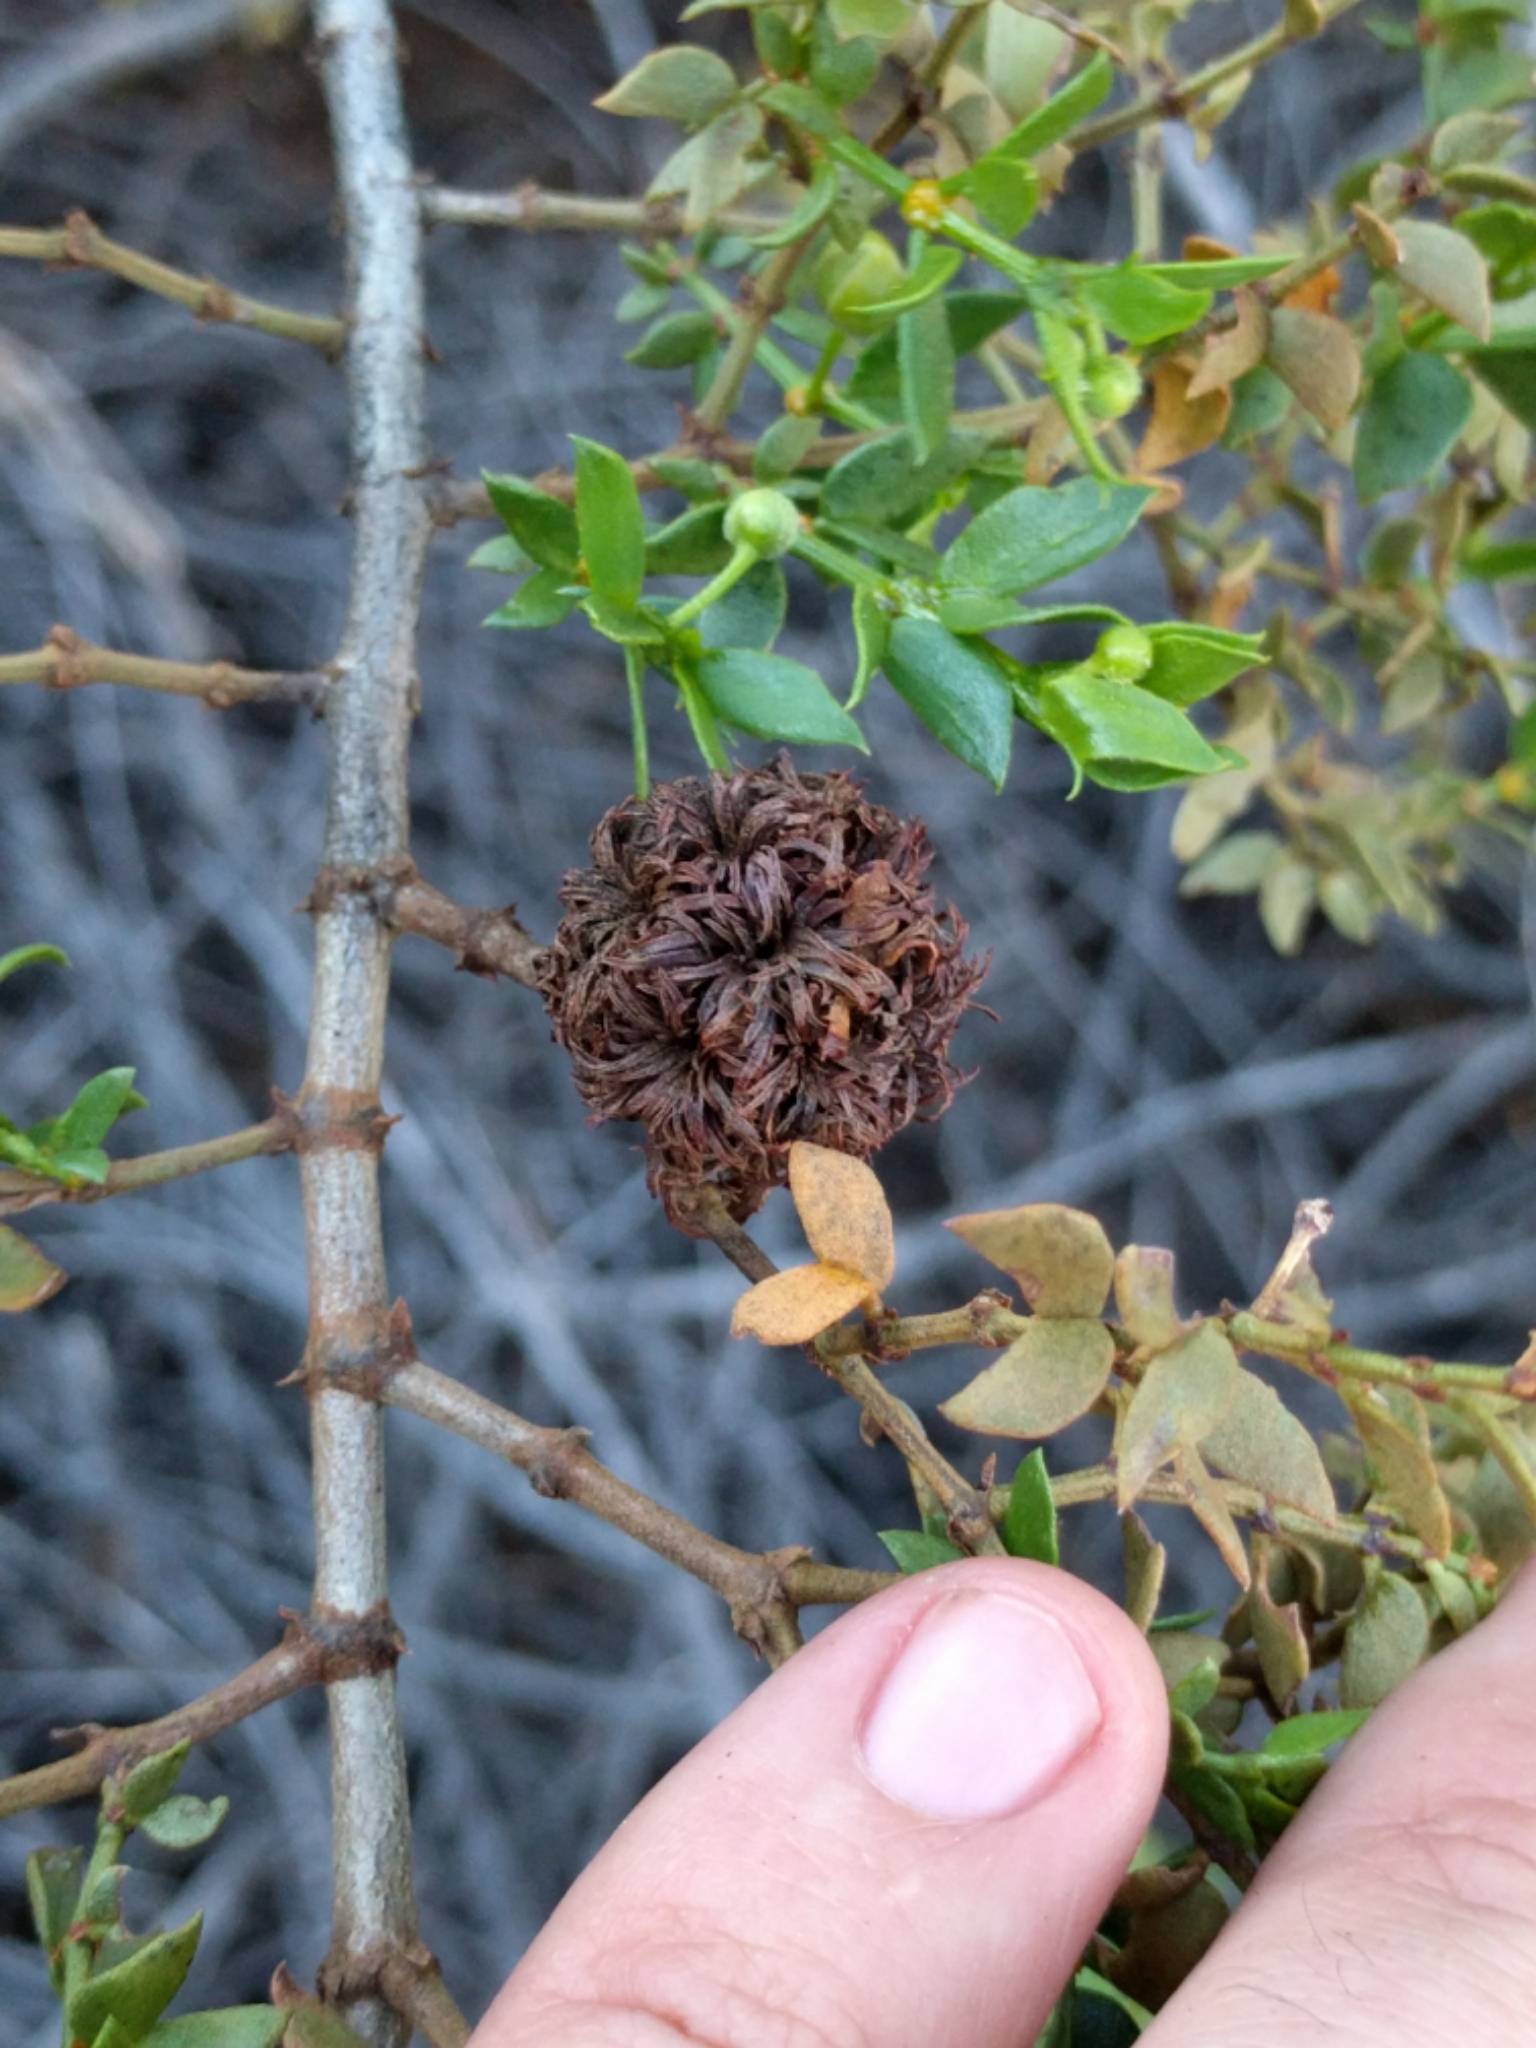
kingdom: Animalia
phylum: Arthropoda
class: Insecta
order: Diptera
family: Cecidomyiidae
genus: Asphondylia
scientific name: Asphondylia auripila
